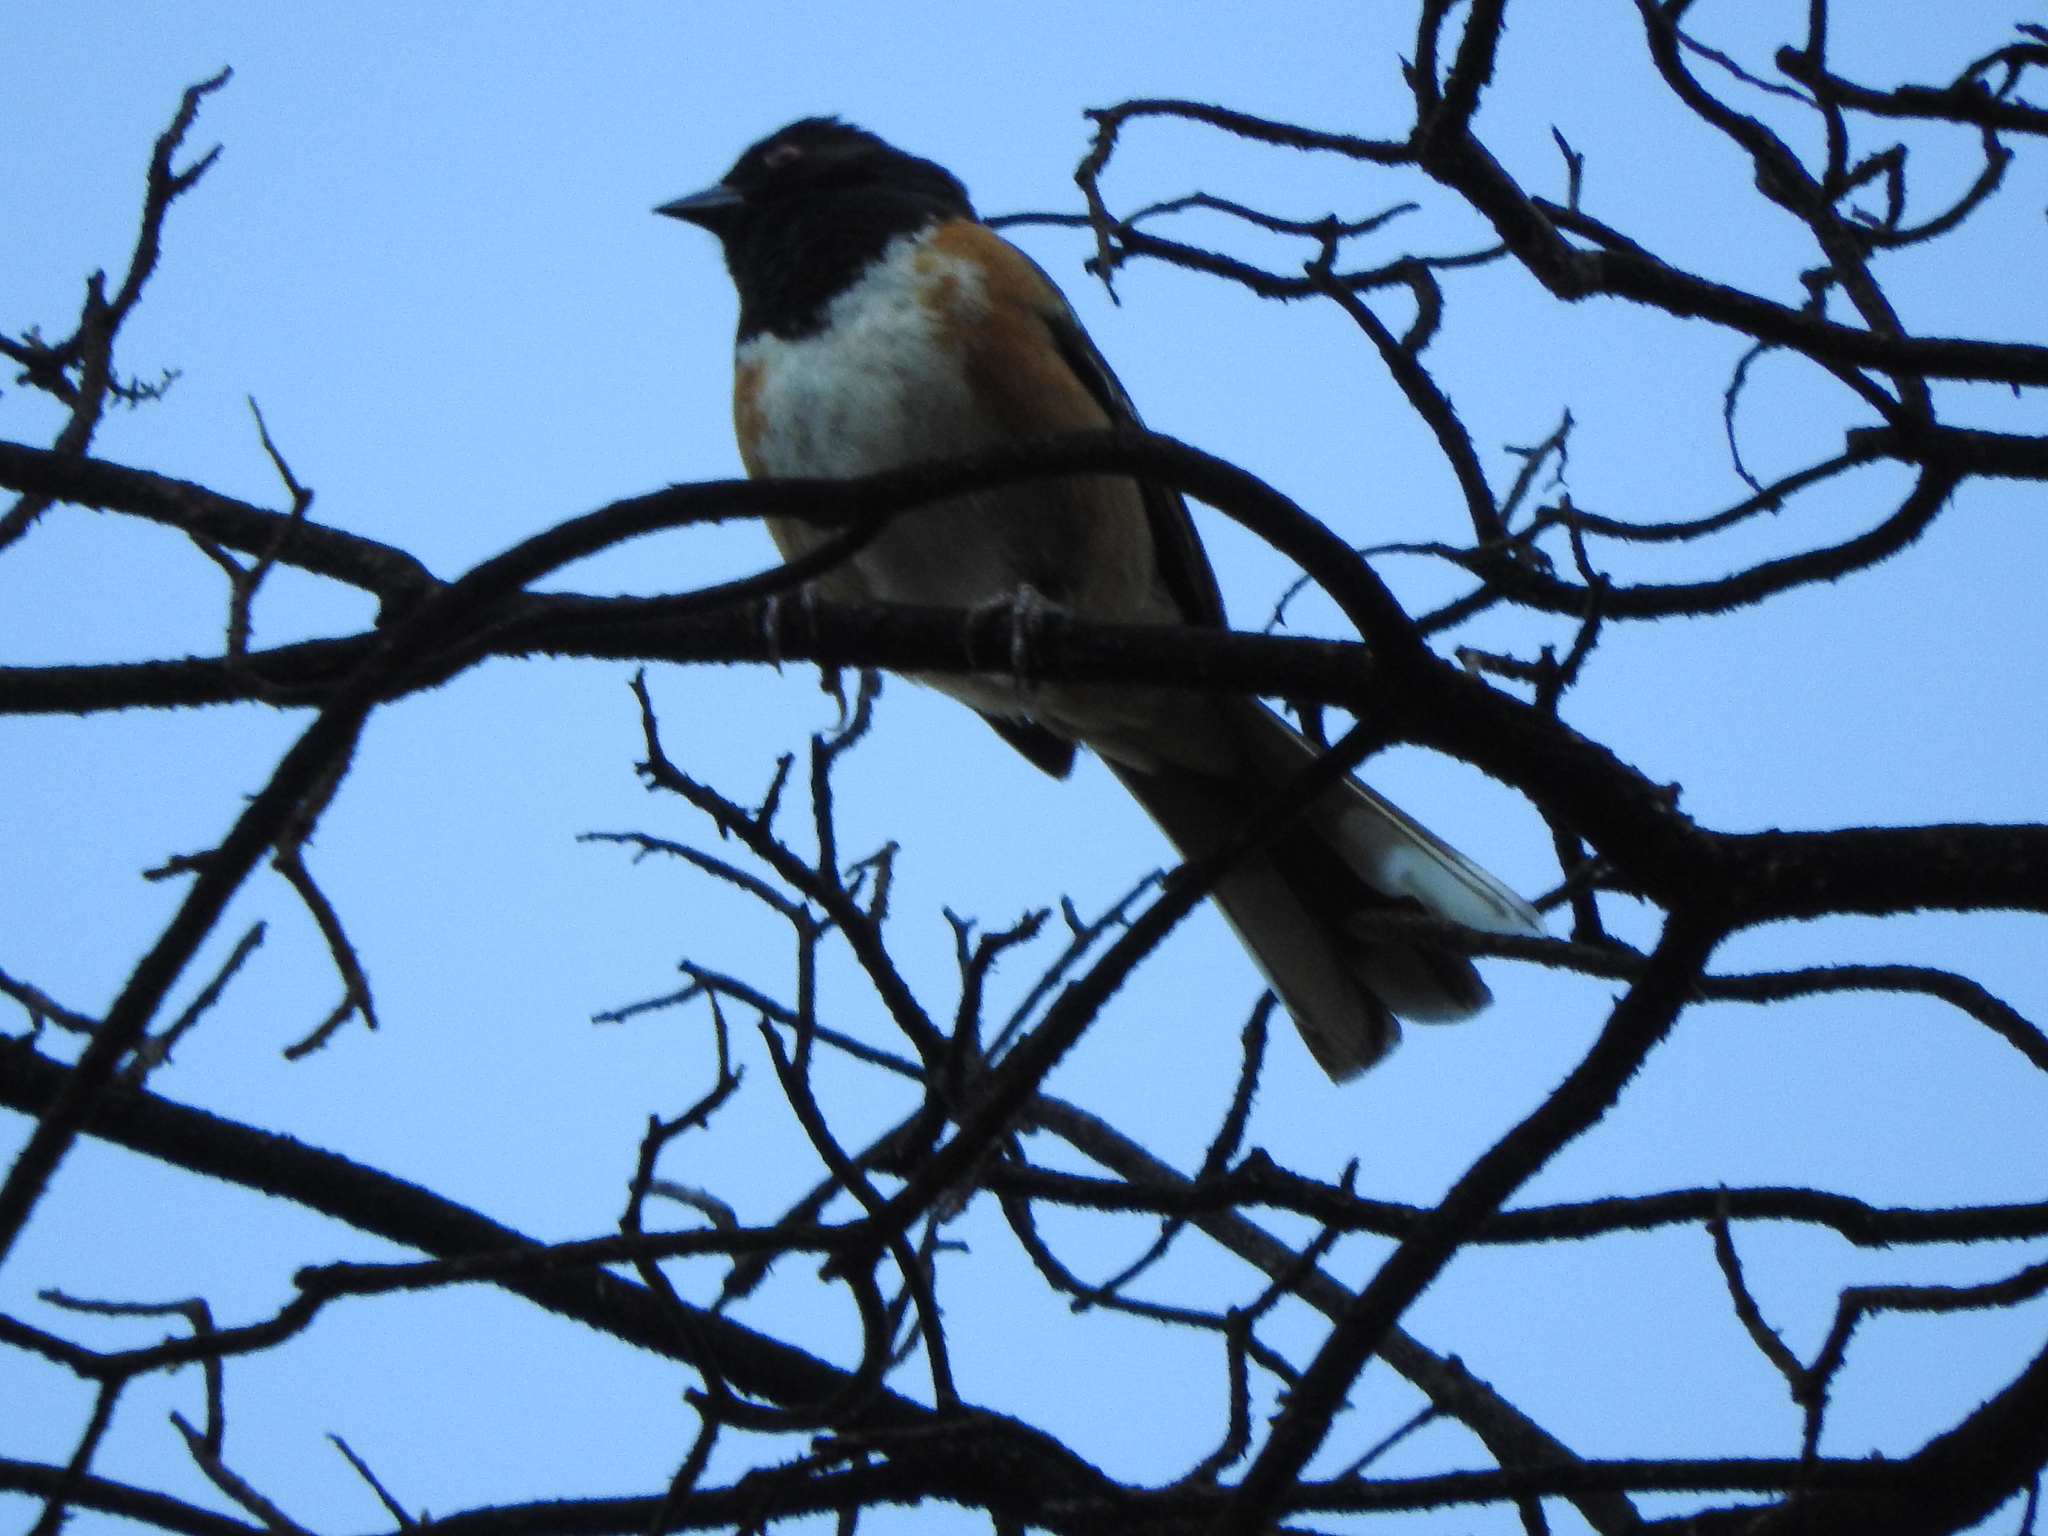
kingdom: Animalia
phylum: Chordata
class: Aves
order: Passeriformes
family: Passerellidae
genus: Pipilo
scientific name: Pipilo maculatus
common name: Spotted towhee
